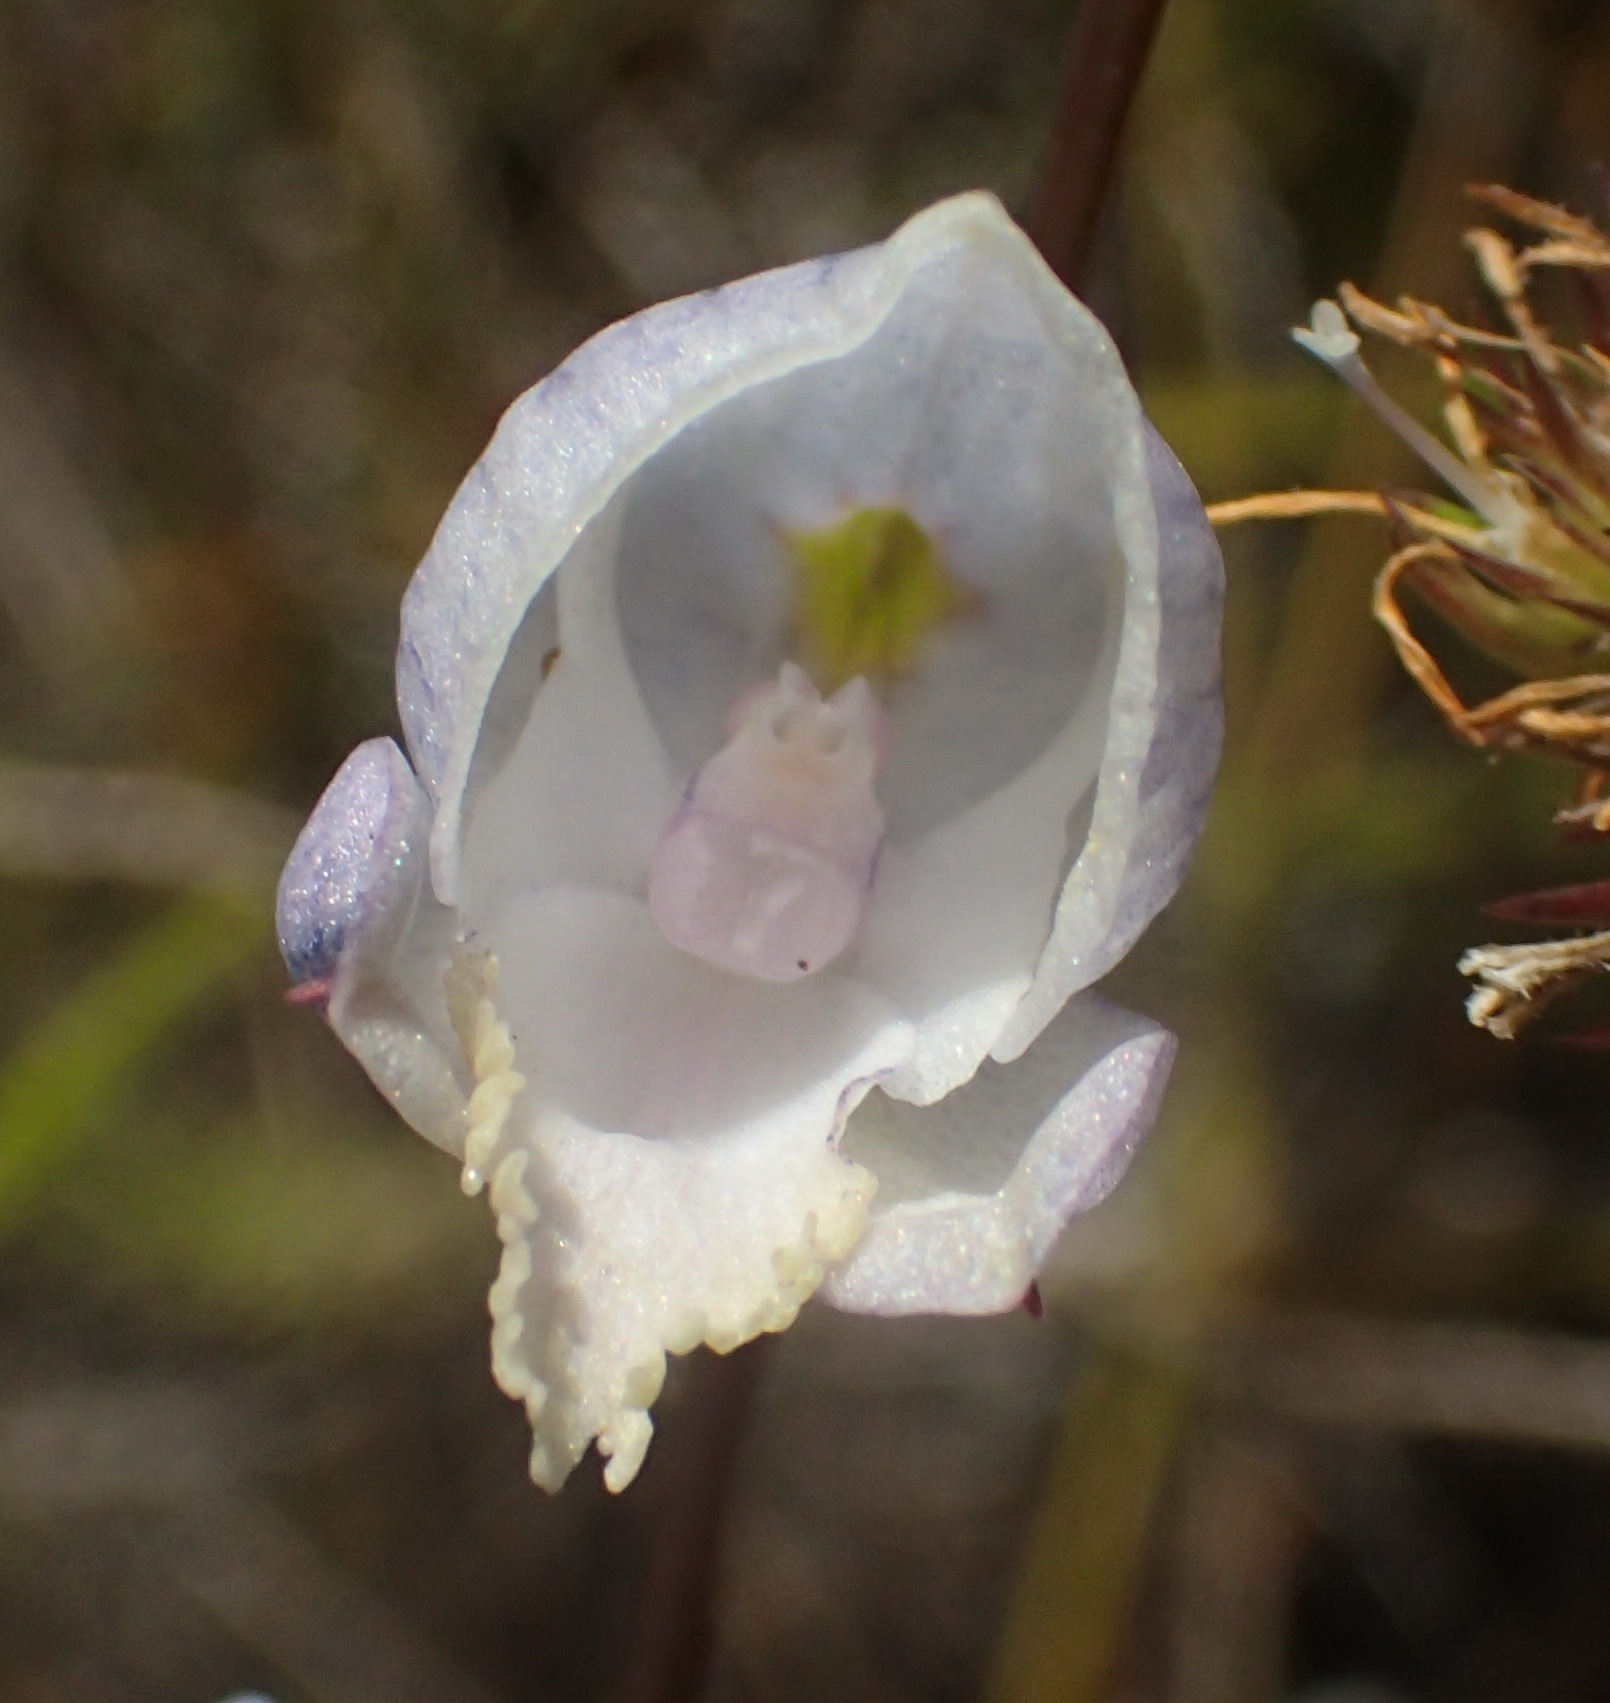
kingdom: Plantae
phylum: Tracheophyta
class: Liliopsida
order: Asparagales
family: Orchidaceae
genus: Disa
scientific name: Disa hians
